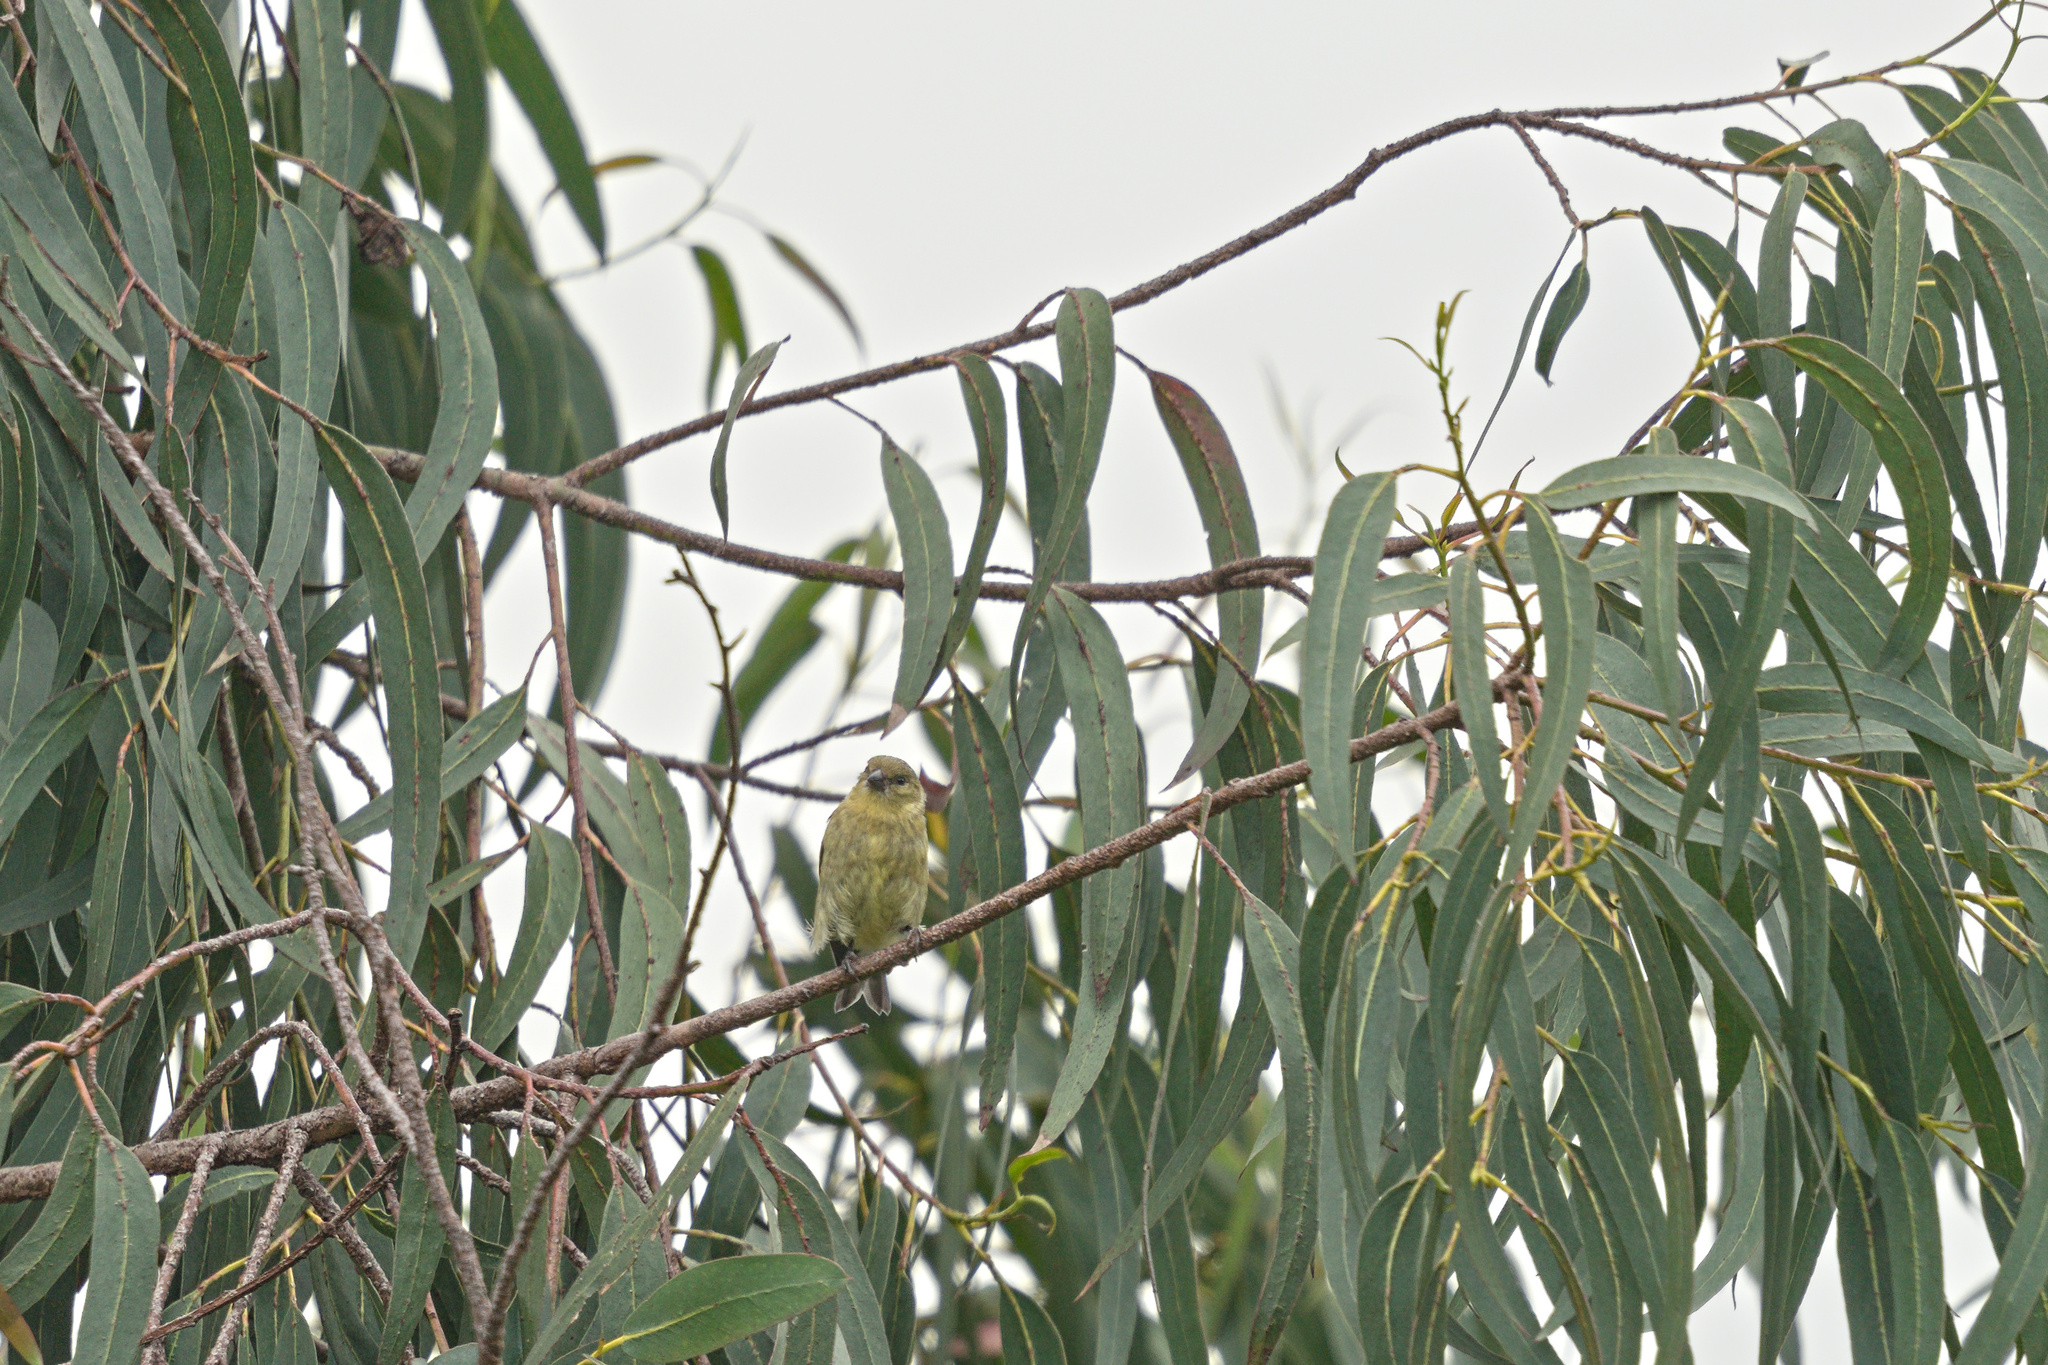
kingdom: Animalia
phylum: Chordata
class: Aves
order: Passeriformes
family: Fringillidae
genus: Spinus
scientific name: Spinus magellanicus
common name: Hooded siskin
